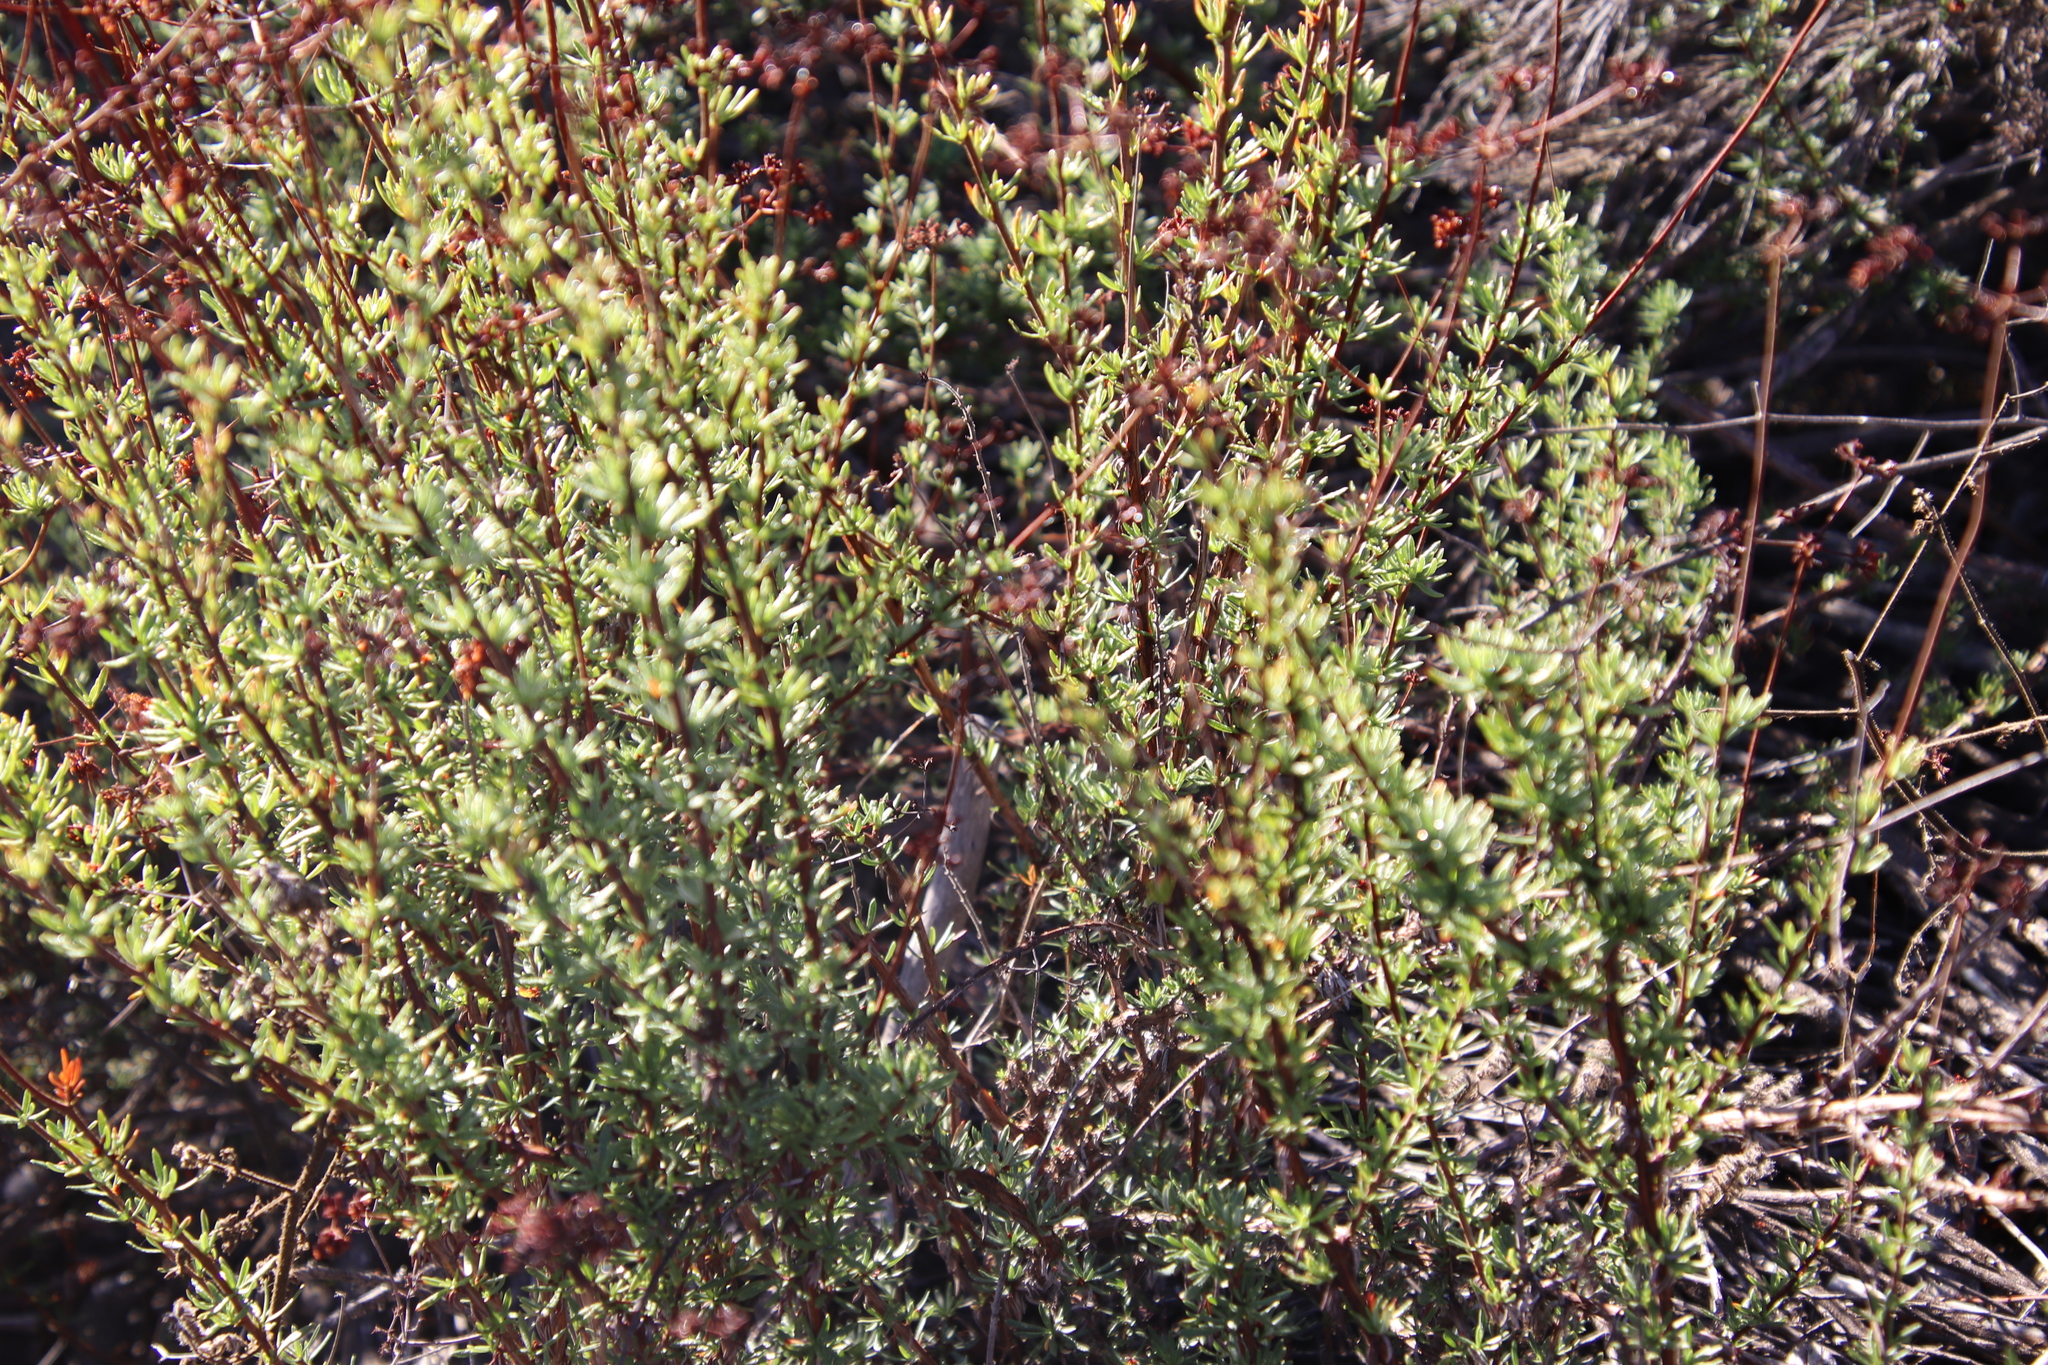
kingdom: Plantae
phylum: Tracheophyta
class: Magnoliopsida
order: Caryophyllales
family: Polygonaceae
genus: Eriogonum
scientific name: Eriogonum fasciculatum
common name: California wild buckwheat
